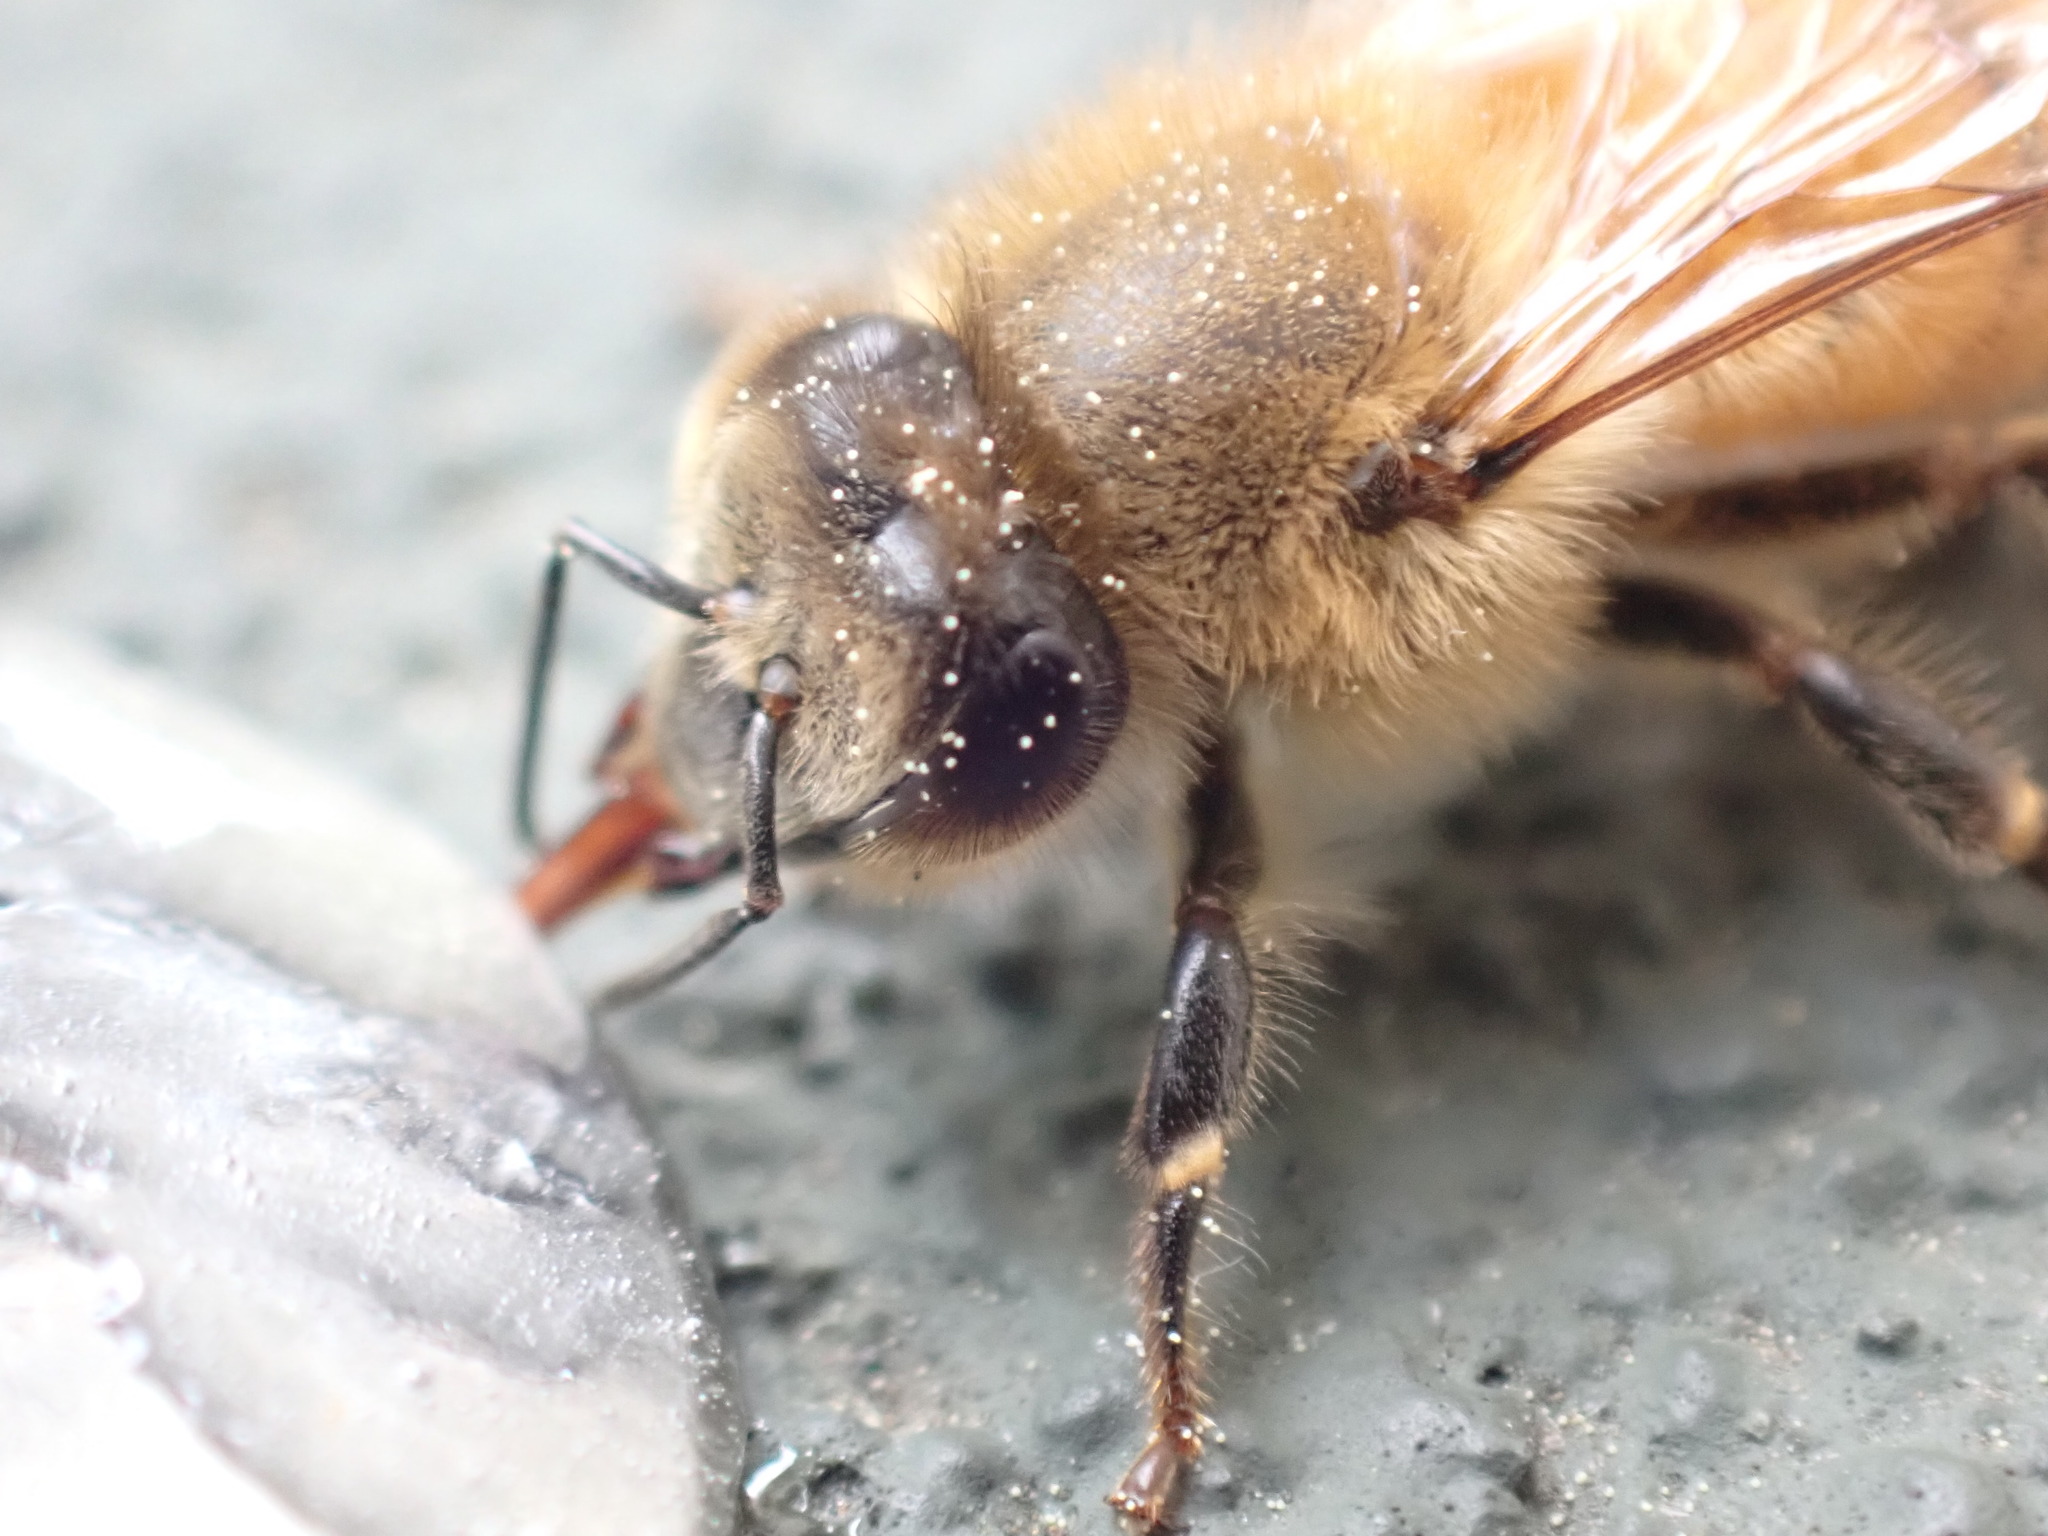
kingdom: Animalia
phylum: Arthropoda
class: Insecta
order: Hymenoptera
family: Apidae
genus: Apis
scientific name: Apis mellifera
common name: Honey bee
